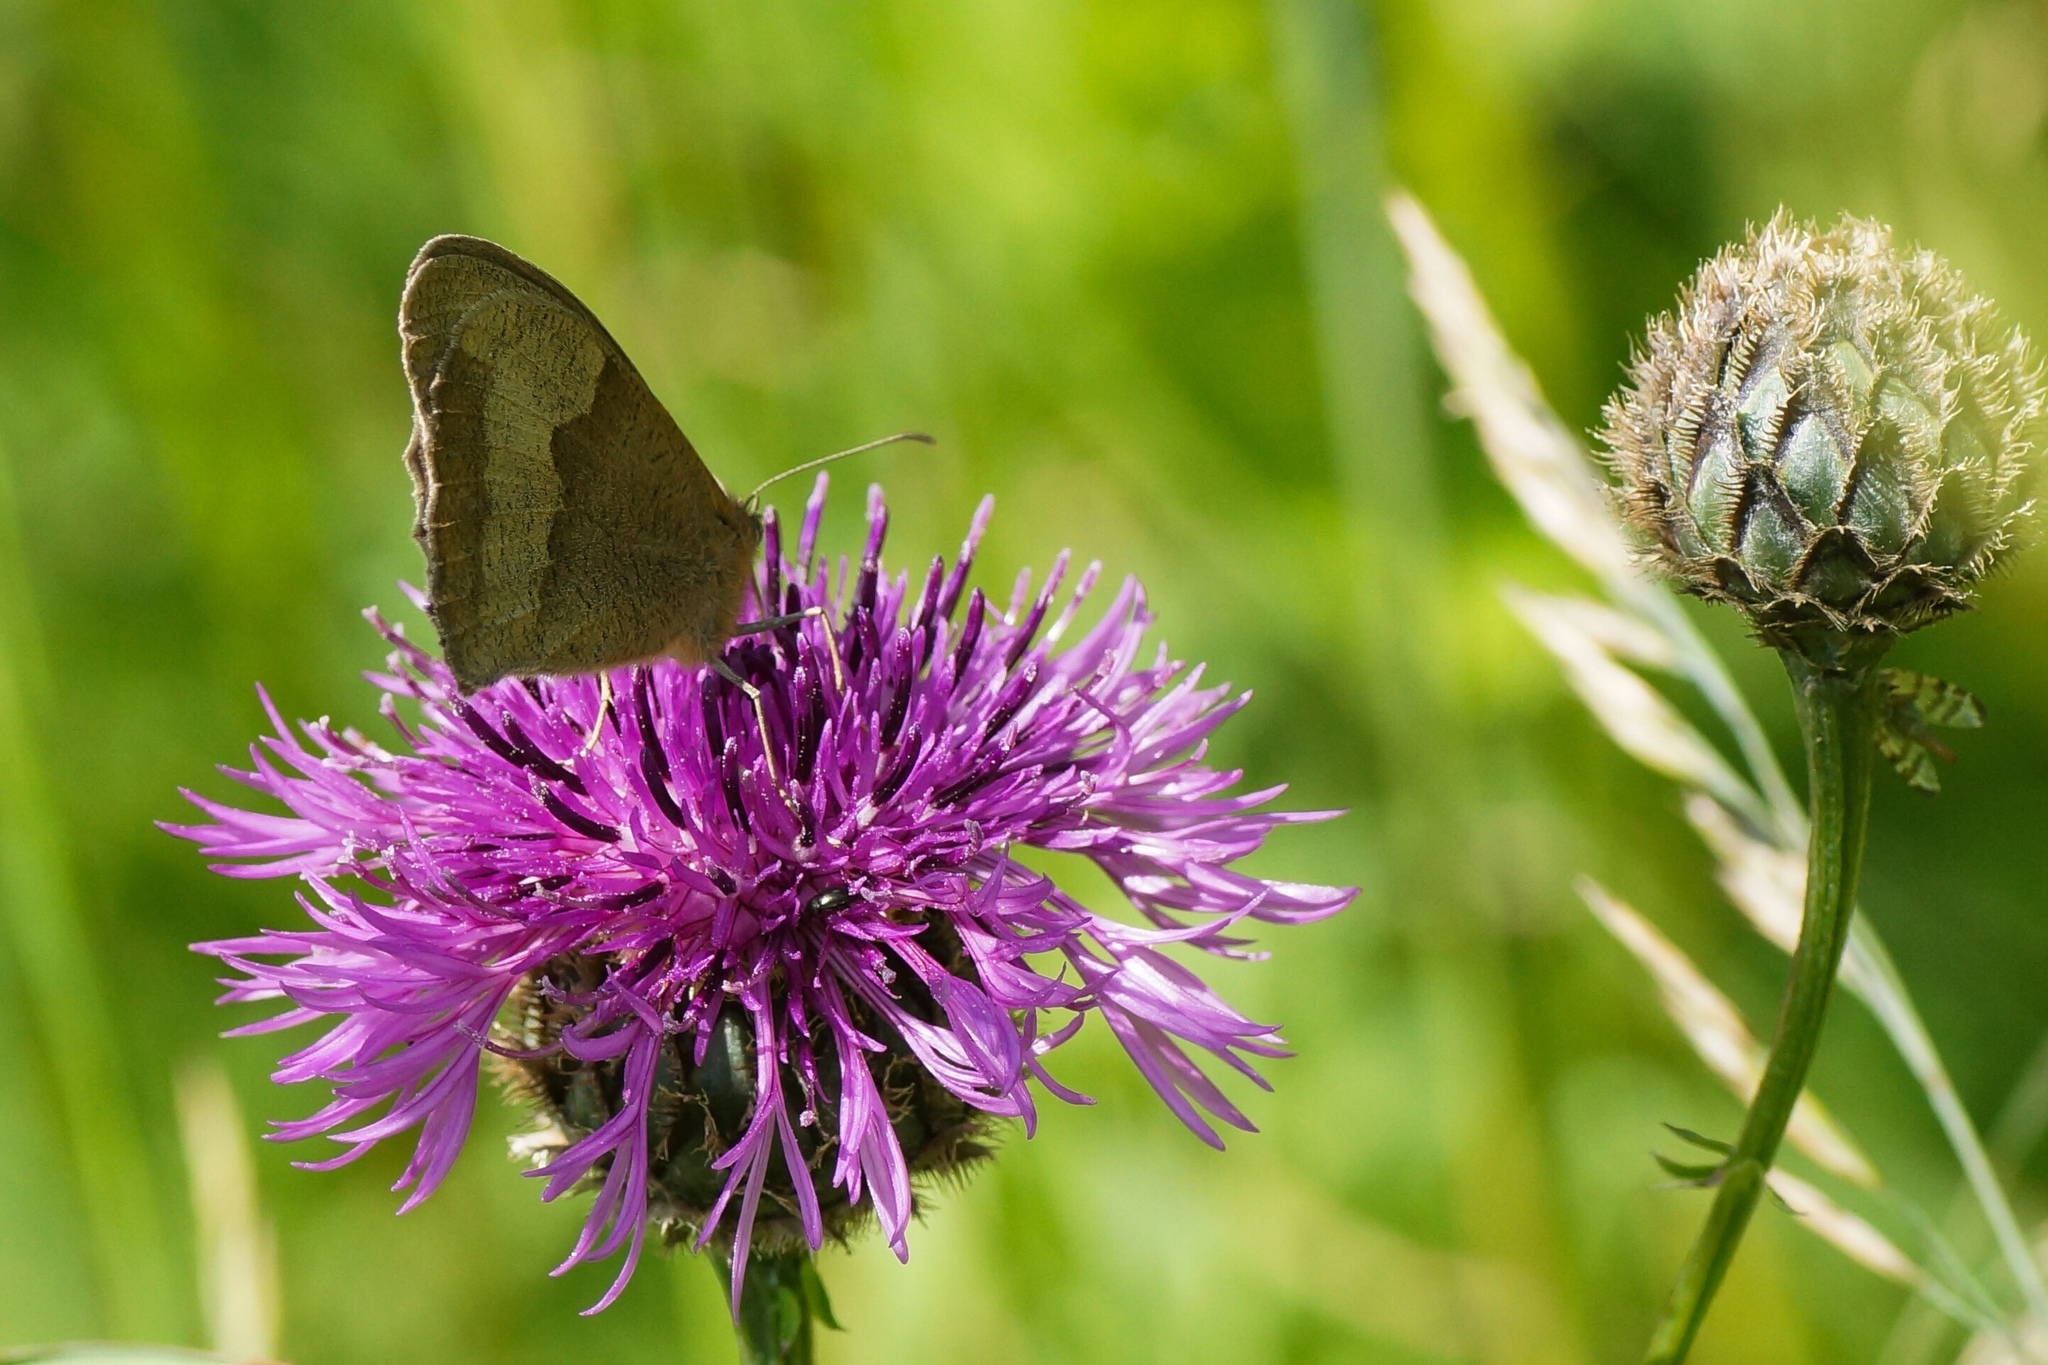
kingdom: Animalia
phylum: Arthropoda
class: Insecta
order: Lepidoptera
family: Nymphalidae
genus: Maniola
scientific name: Maniola jurtina
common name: Meadow brown
